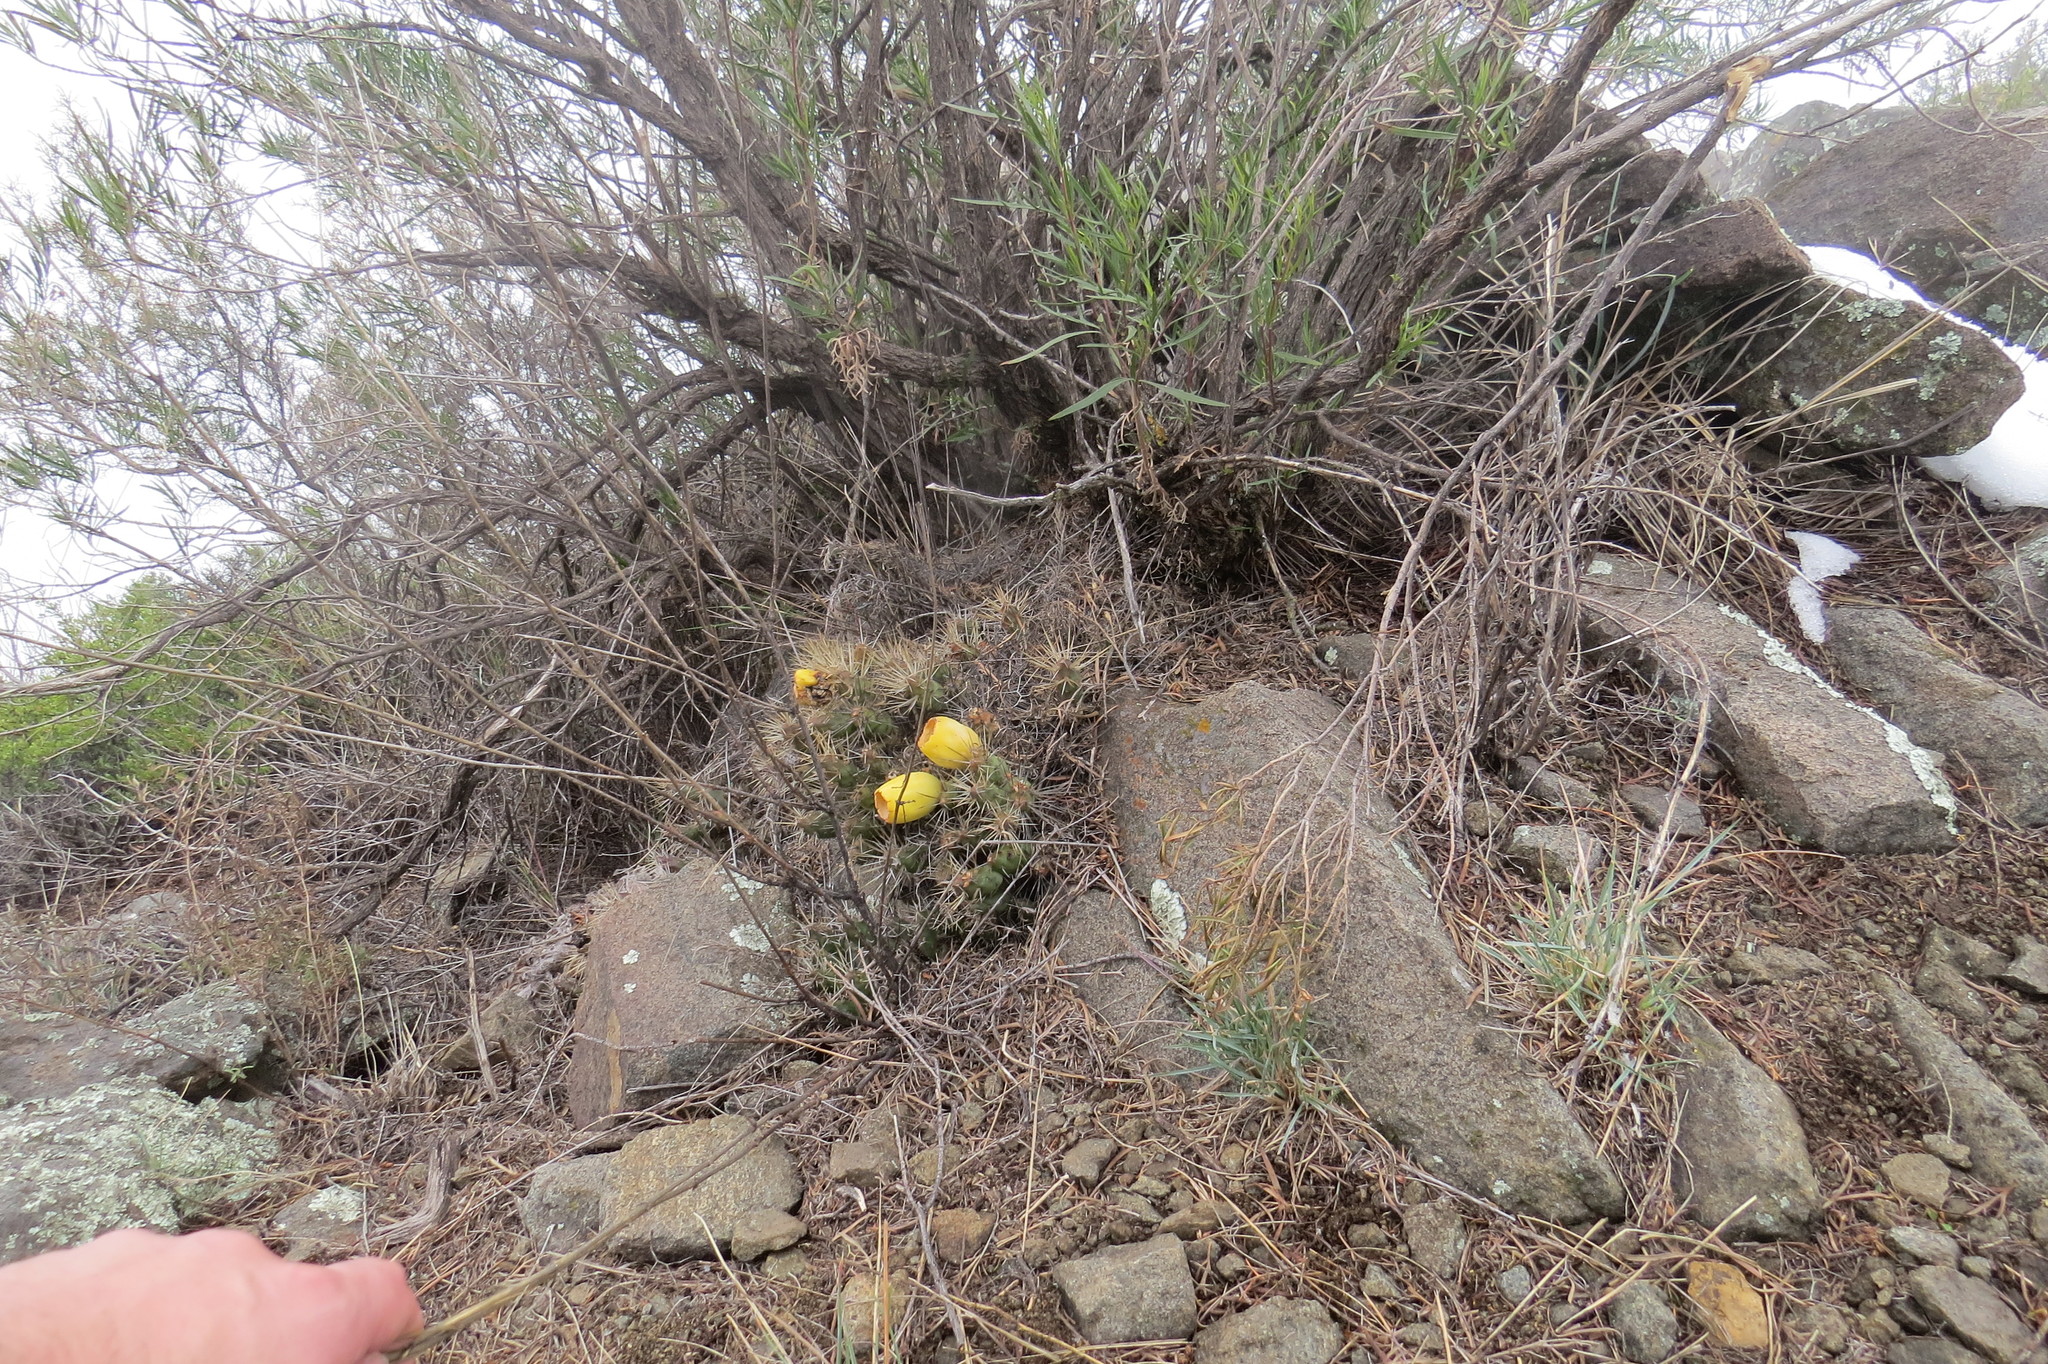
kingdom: Plantae
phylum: Tracheophyta
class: Magnoliopsida
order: Caryophyllales
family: Cactaceae
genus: Maihueniopsis
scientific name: Maihueniopsis ovata
